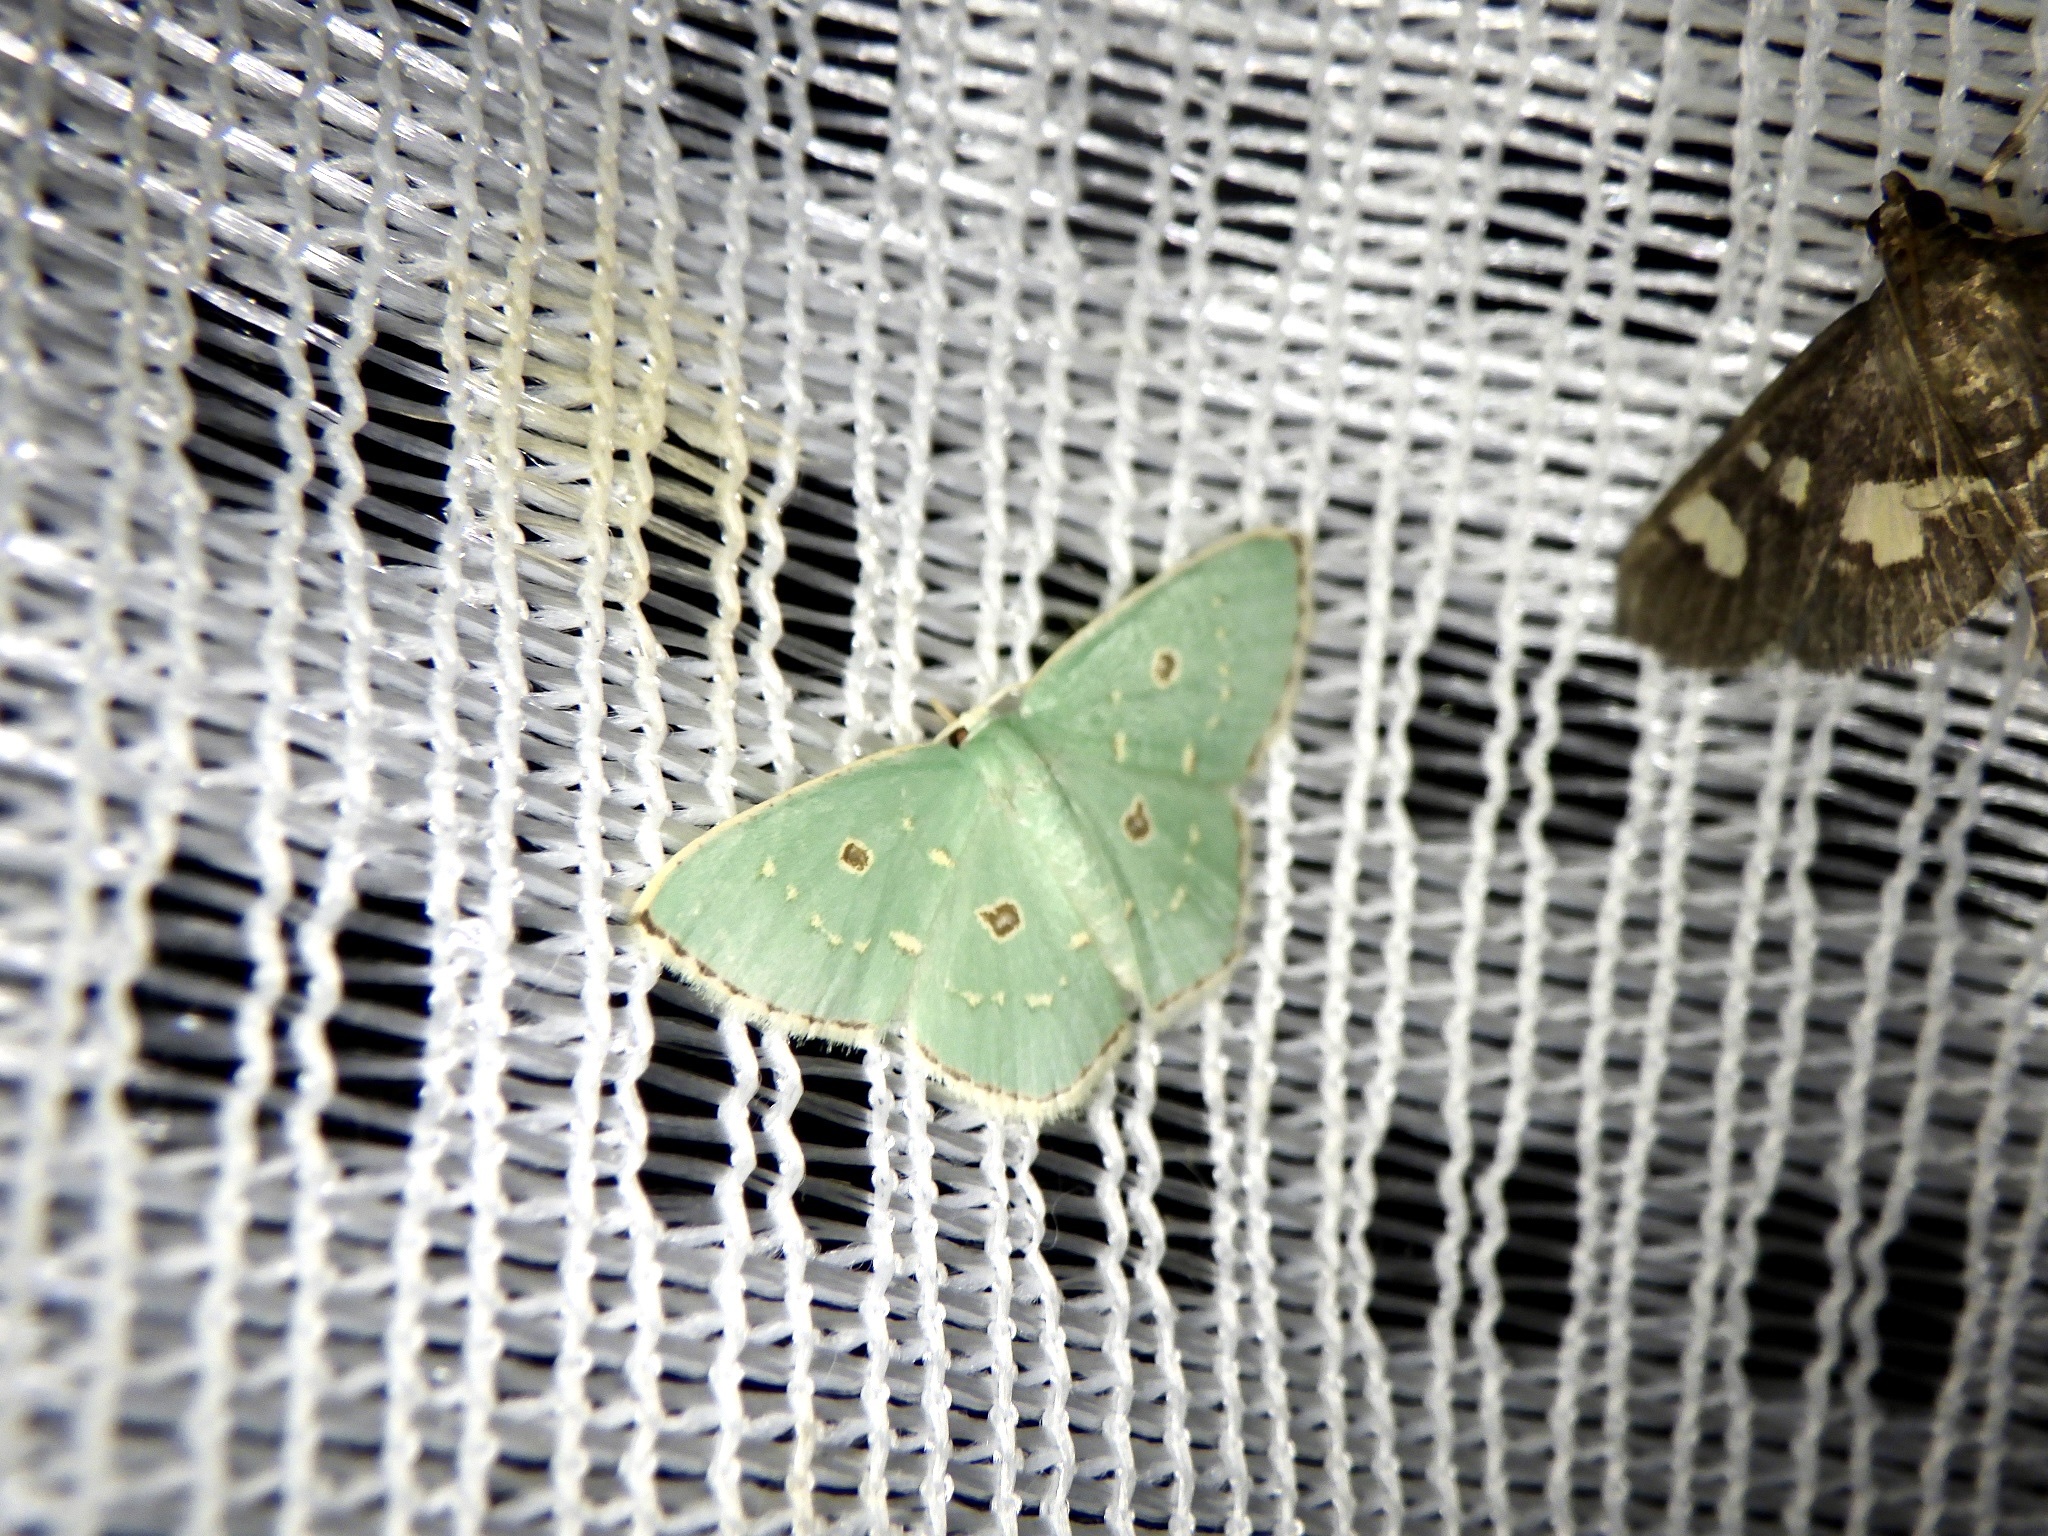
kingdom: Animalia
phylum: Arthropoda
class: Insecta
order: Lepidoptera
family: Geometridae
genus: Comostola
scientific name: Comostola subtiliaria
